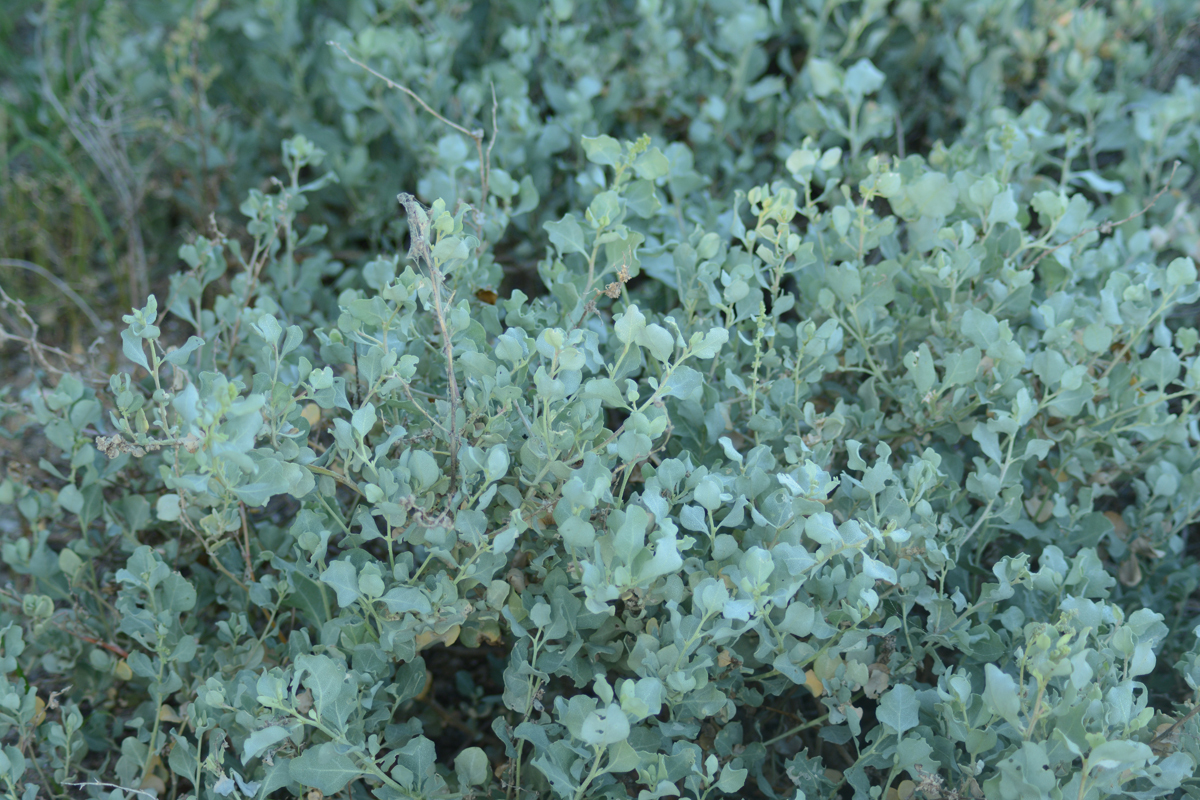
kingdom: Plantae
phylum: Tracheophyta
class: Magnoliopsida
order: Caryophyllales
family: Amaranthaceae
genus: Atriplex
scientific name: Atriplex barclayana
